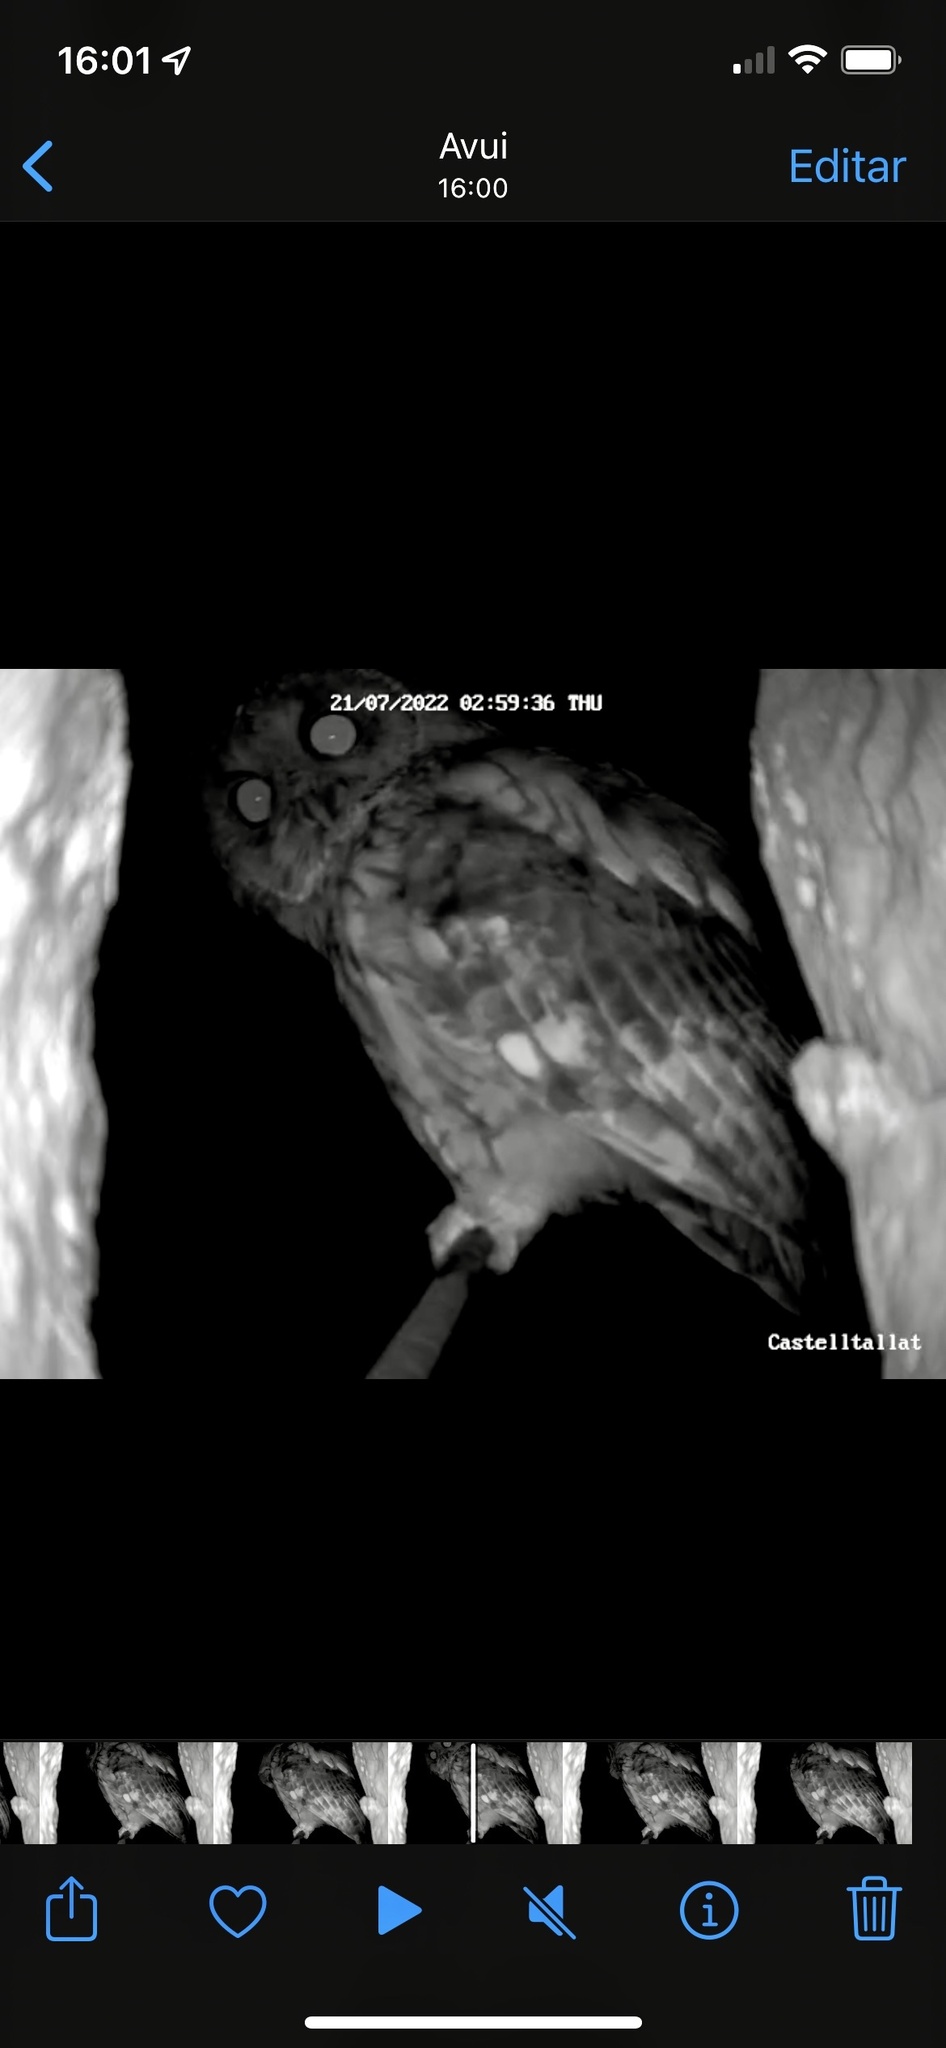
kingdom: Animalia
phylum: Chordata
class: Aves
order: Strigiformes
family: Strigidae
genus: Strix
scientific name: Strix aluco
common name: Tawny owl
